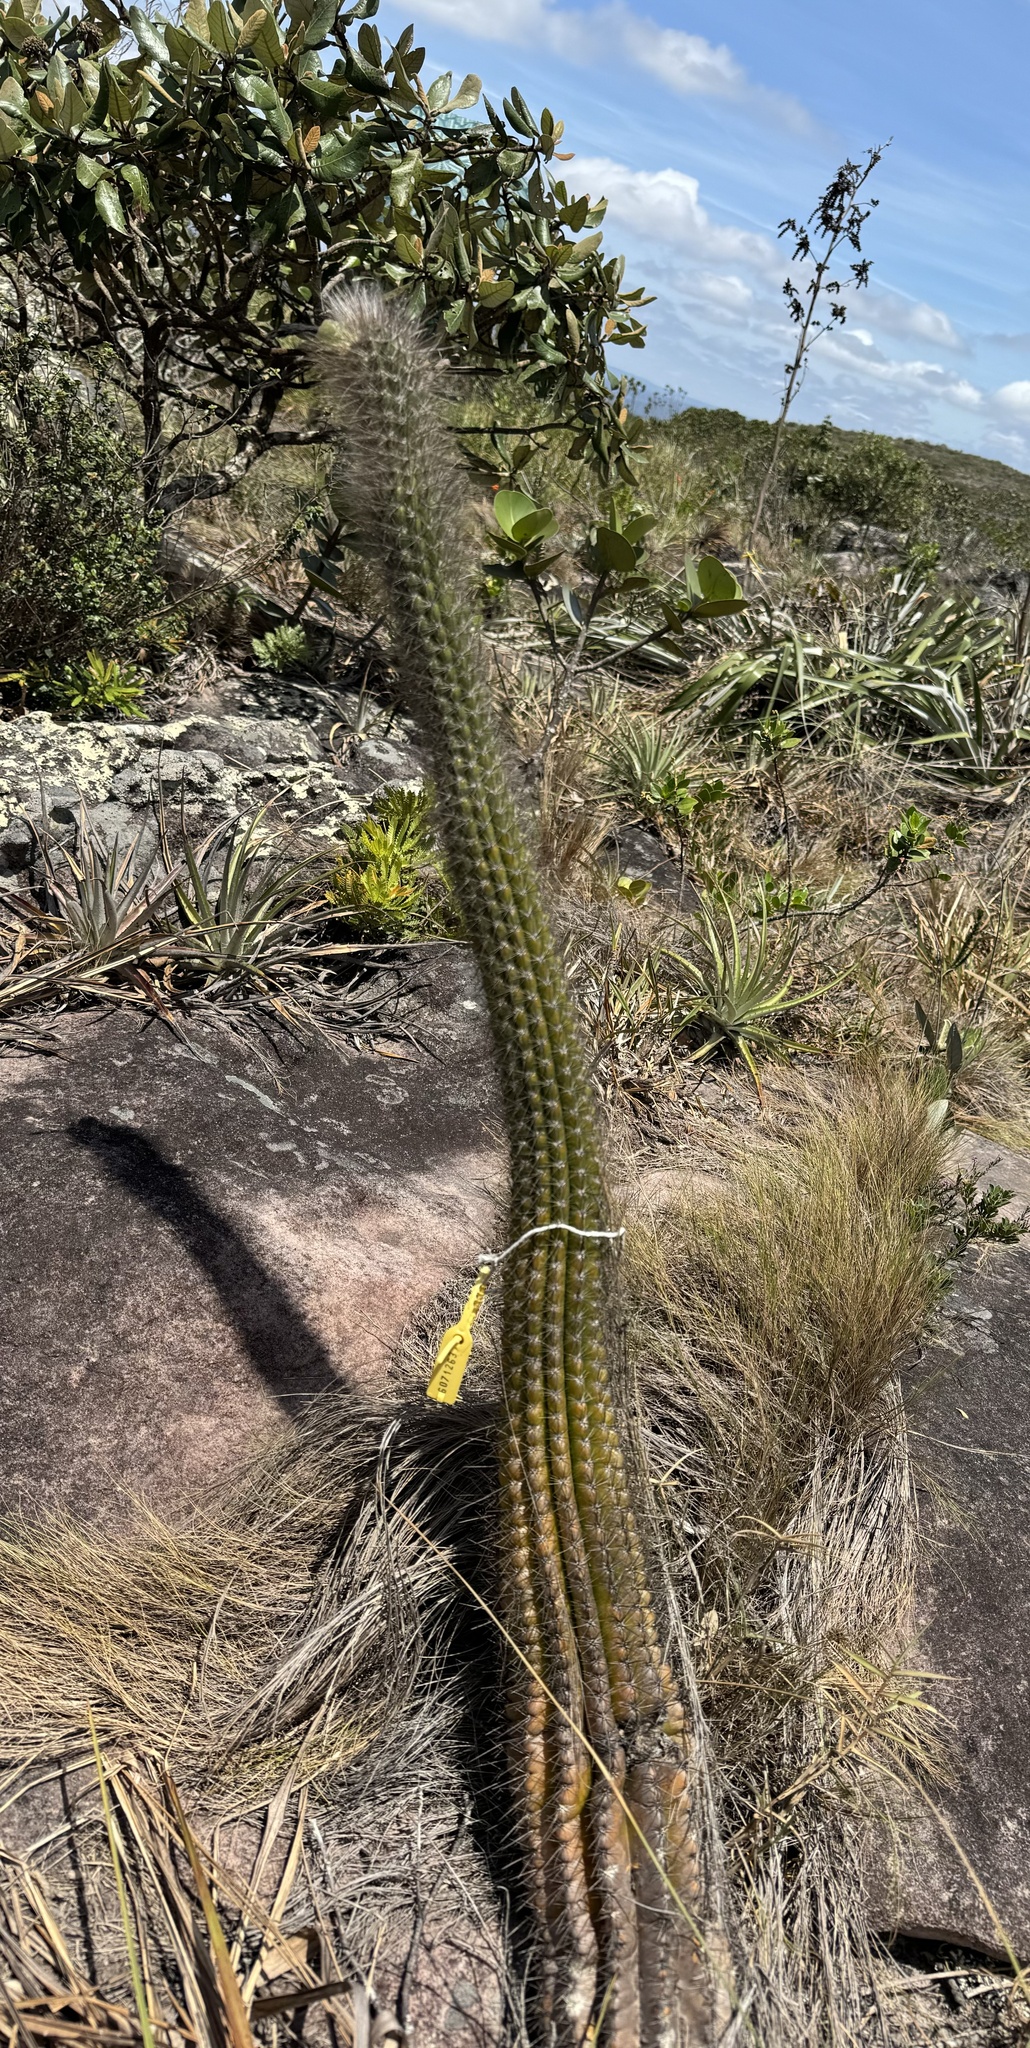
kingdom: Plantae
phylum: Tracheophyta
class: Magnoliopsida
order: Caryophyllales
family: Cactaceae
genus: Arrojadoa
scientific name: Arrojadoa
